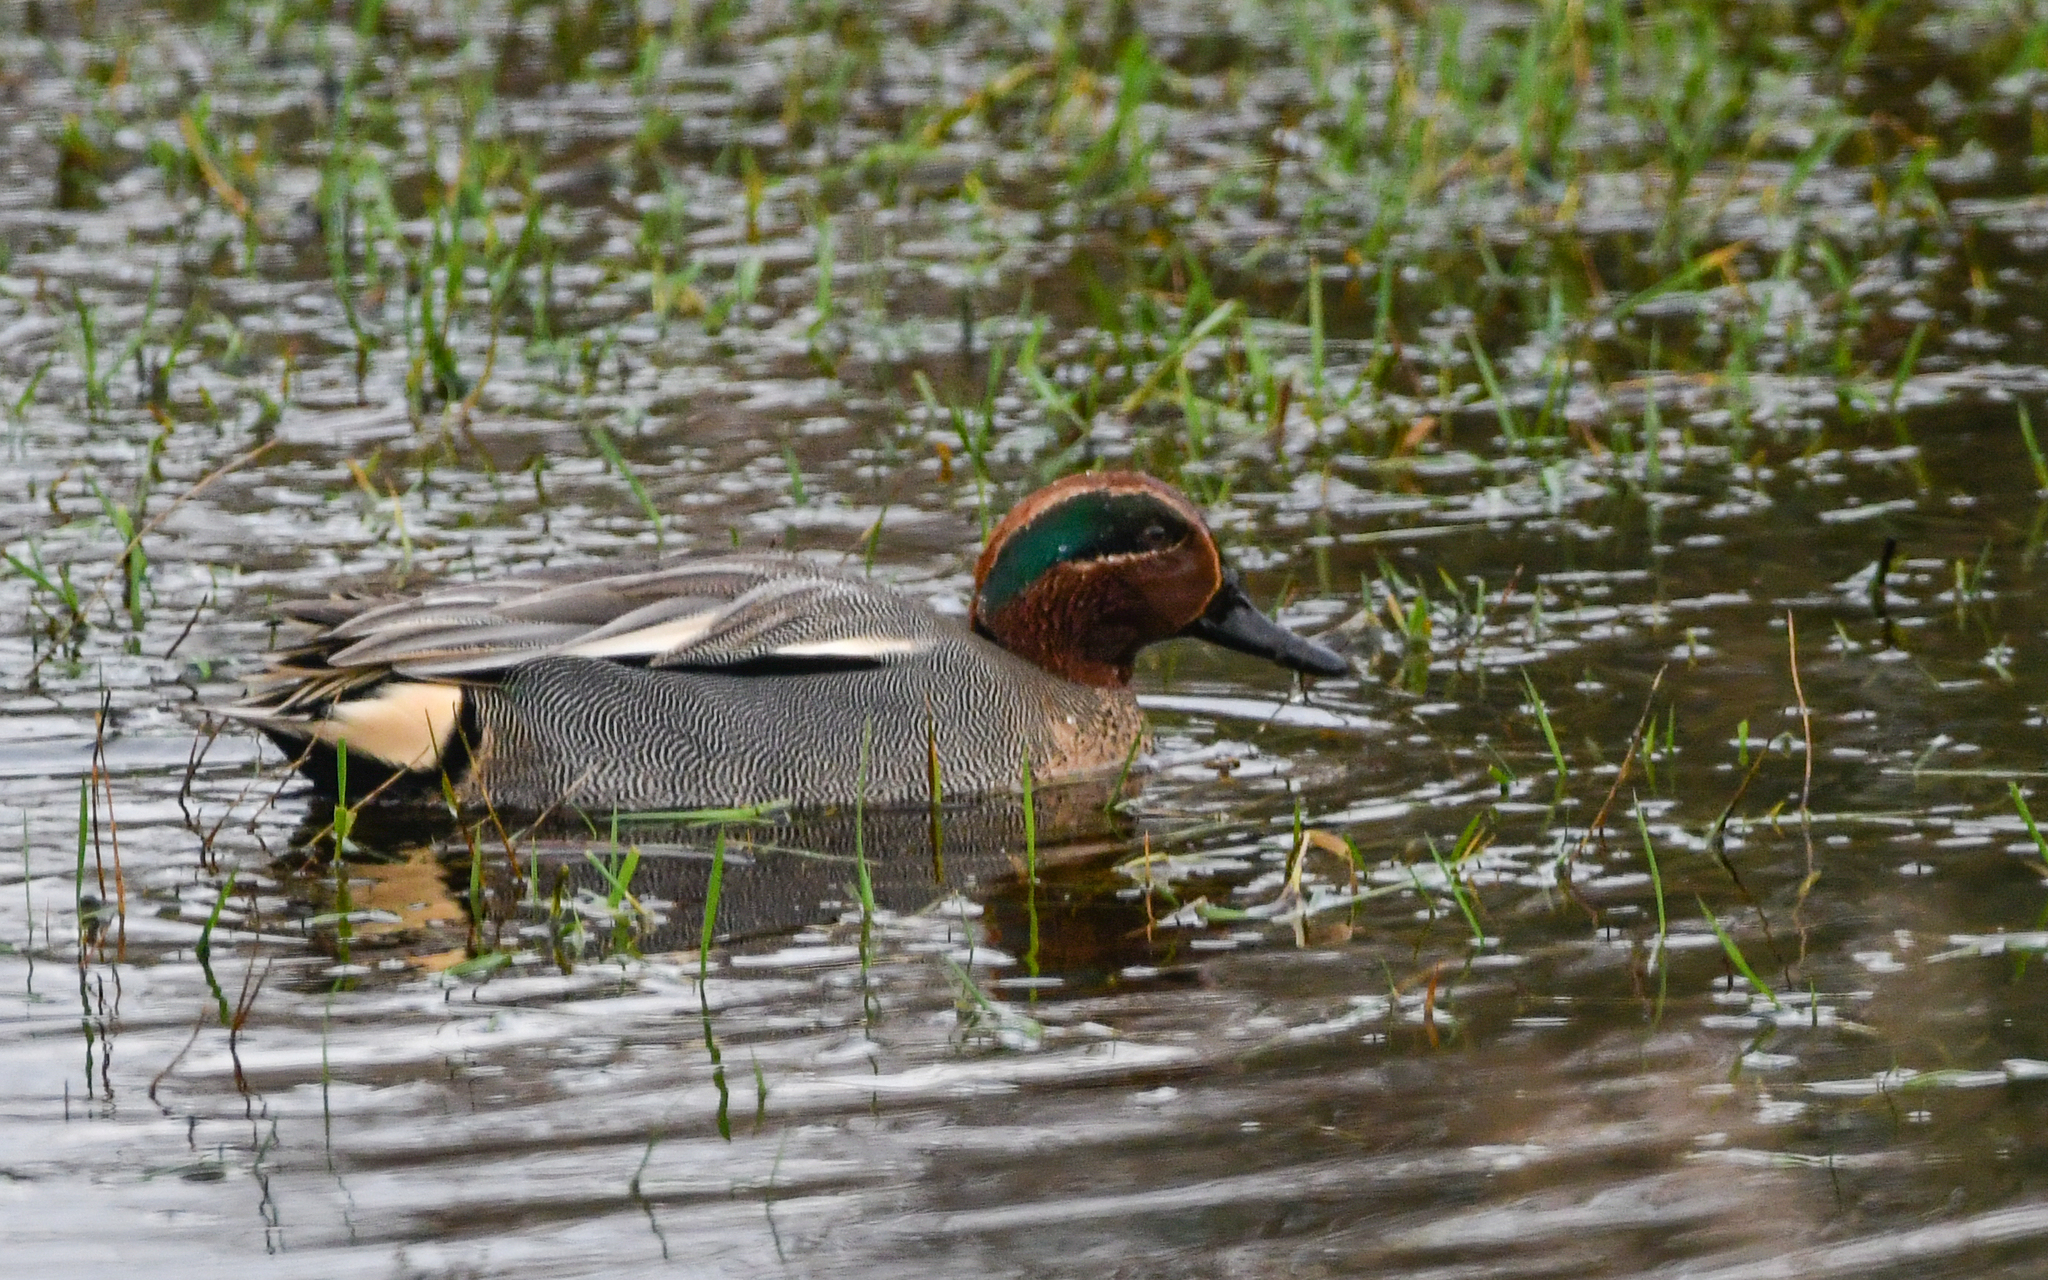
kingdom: Animalia
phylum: Chordata
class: Aves
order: Anseriformes
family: Anatidae
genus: Anas
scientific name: Anas crecca
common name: Eurasian teal
